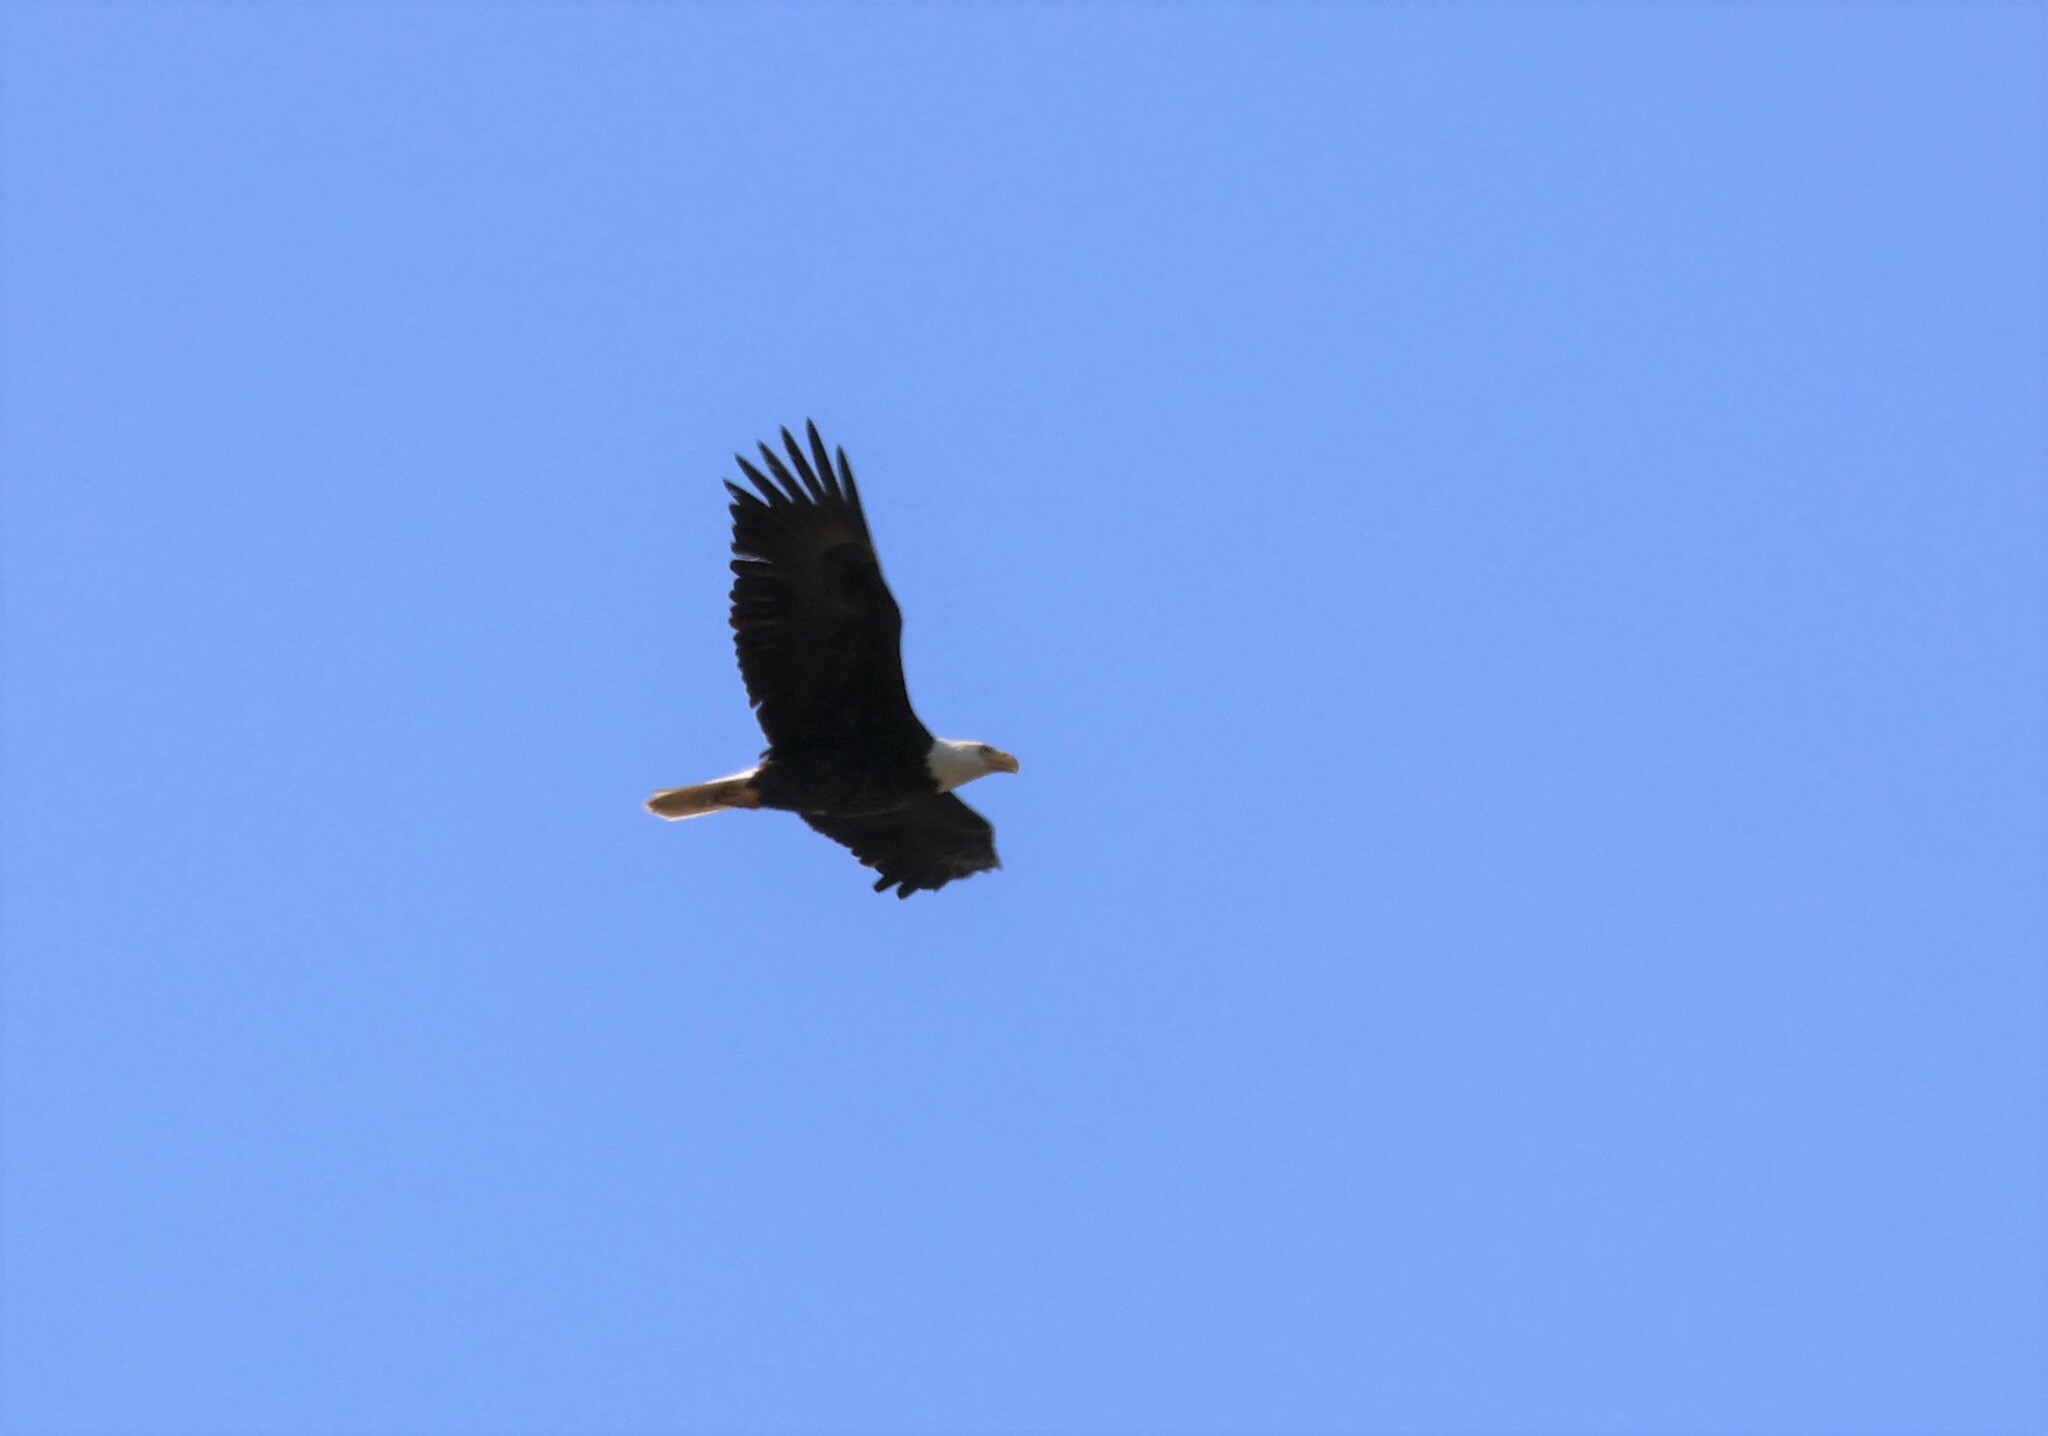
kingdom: Animalia
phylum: Chordata
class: Aves
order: Accipitriformes
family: Accipitridae
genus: Haliaeetus
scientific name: Haliaeetus leucocephalus
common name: Bald eagle
